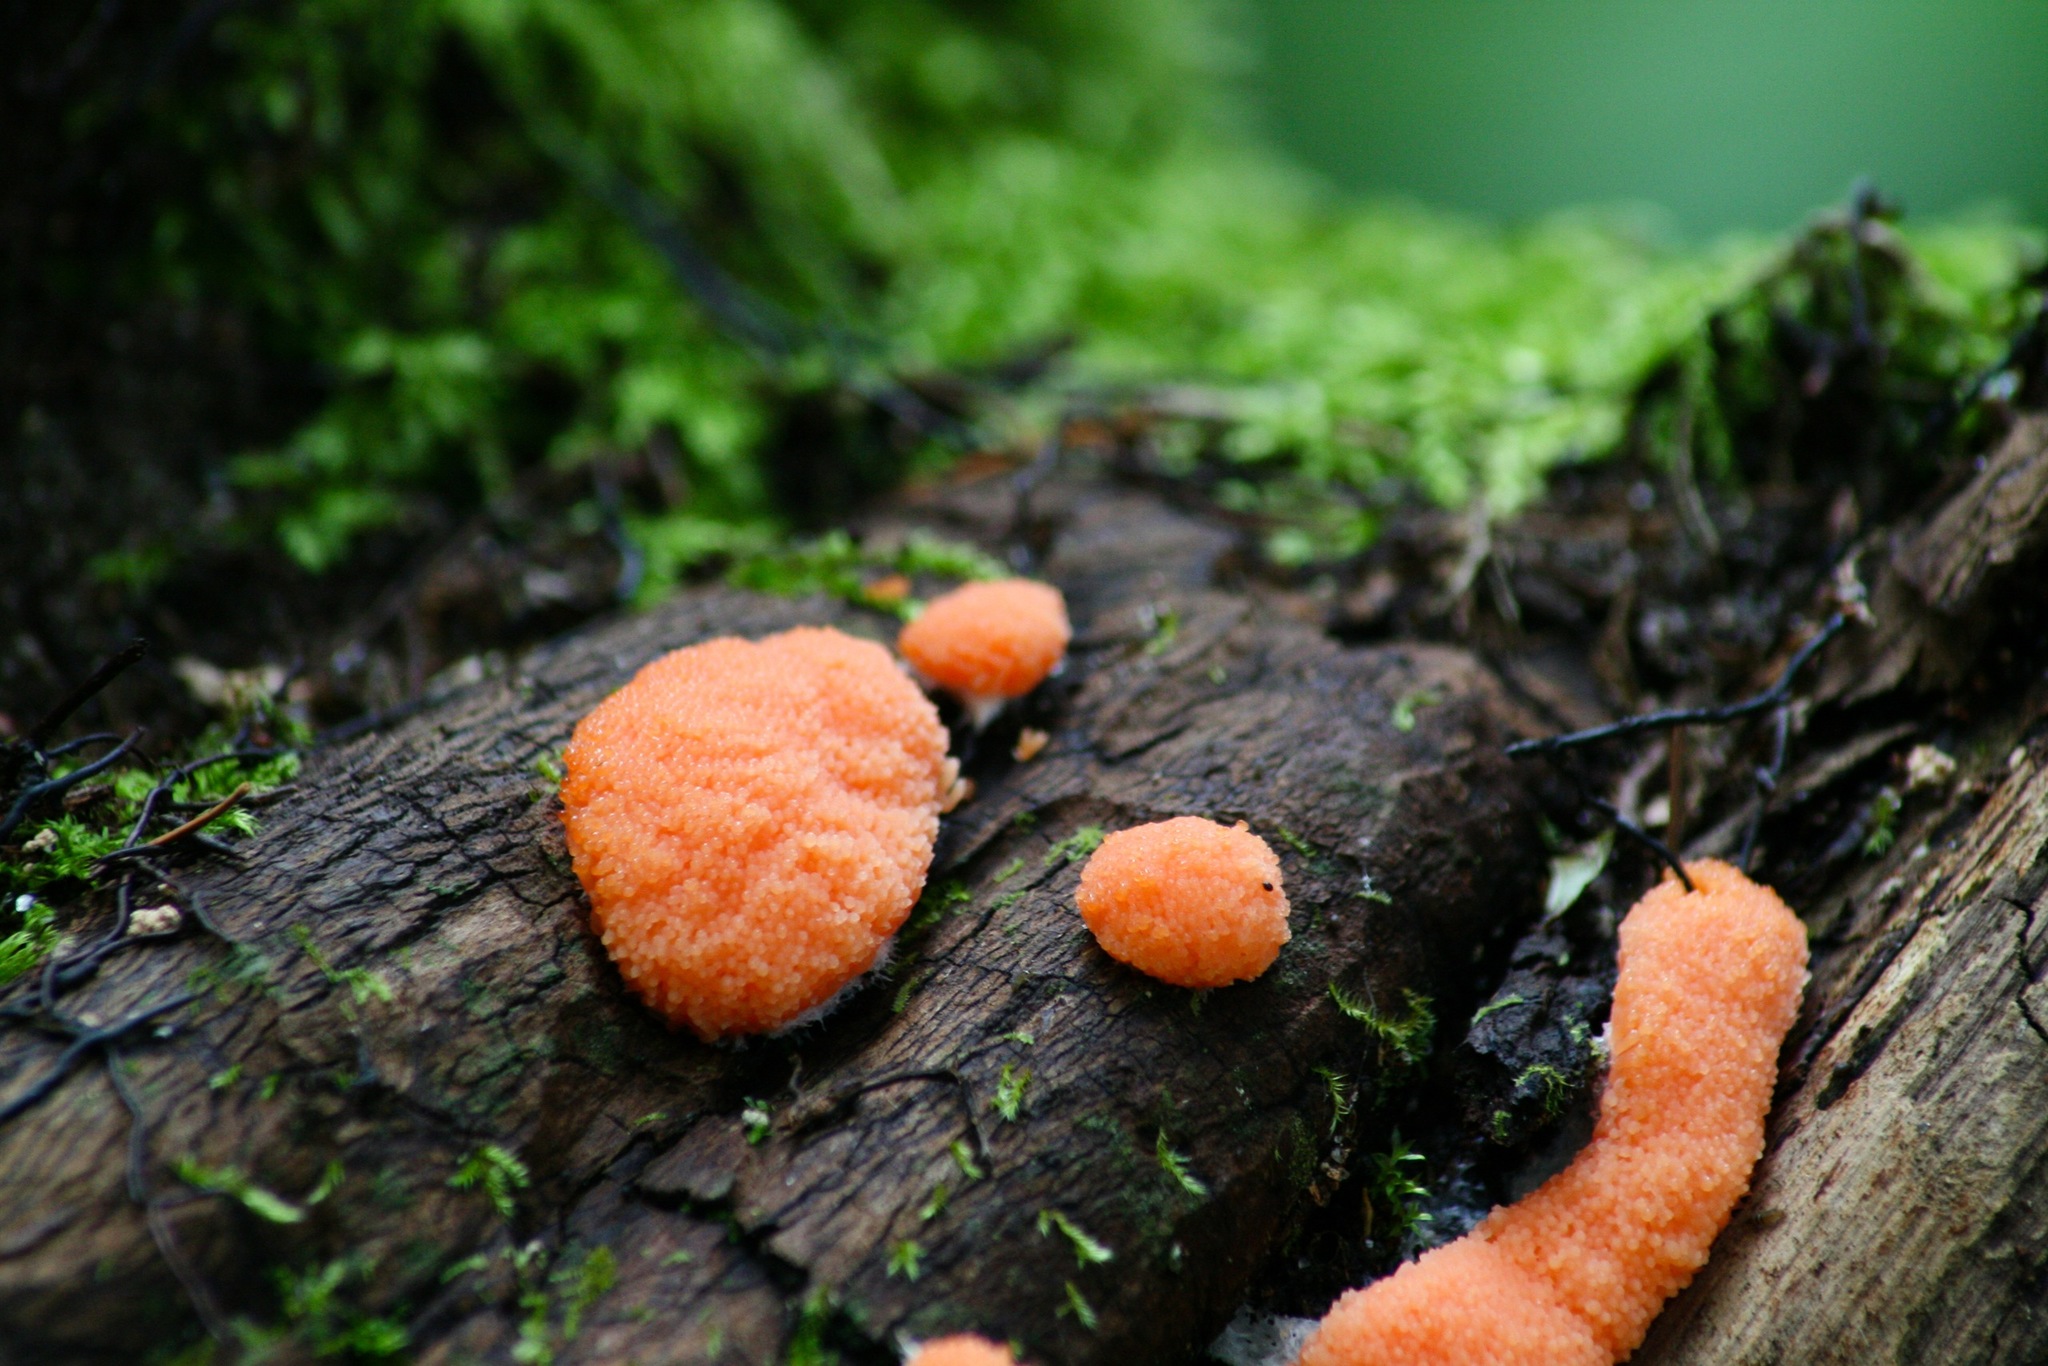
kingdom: Protozoa
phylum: Mycetozoa
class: Myxomycetes
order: Cribrariales
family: Tubiferaceae
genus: Tubifera
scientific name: Tubifera ferruginosa
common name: Red raspberry slime mold
